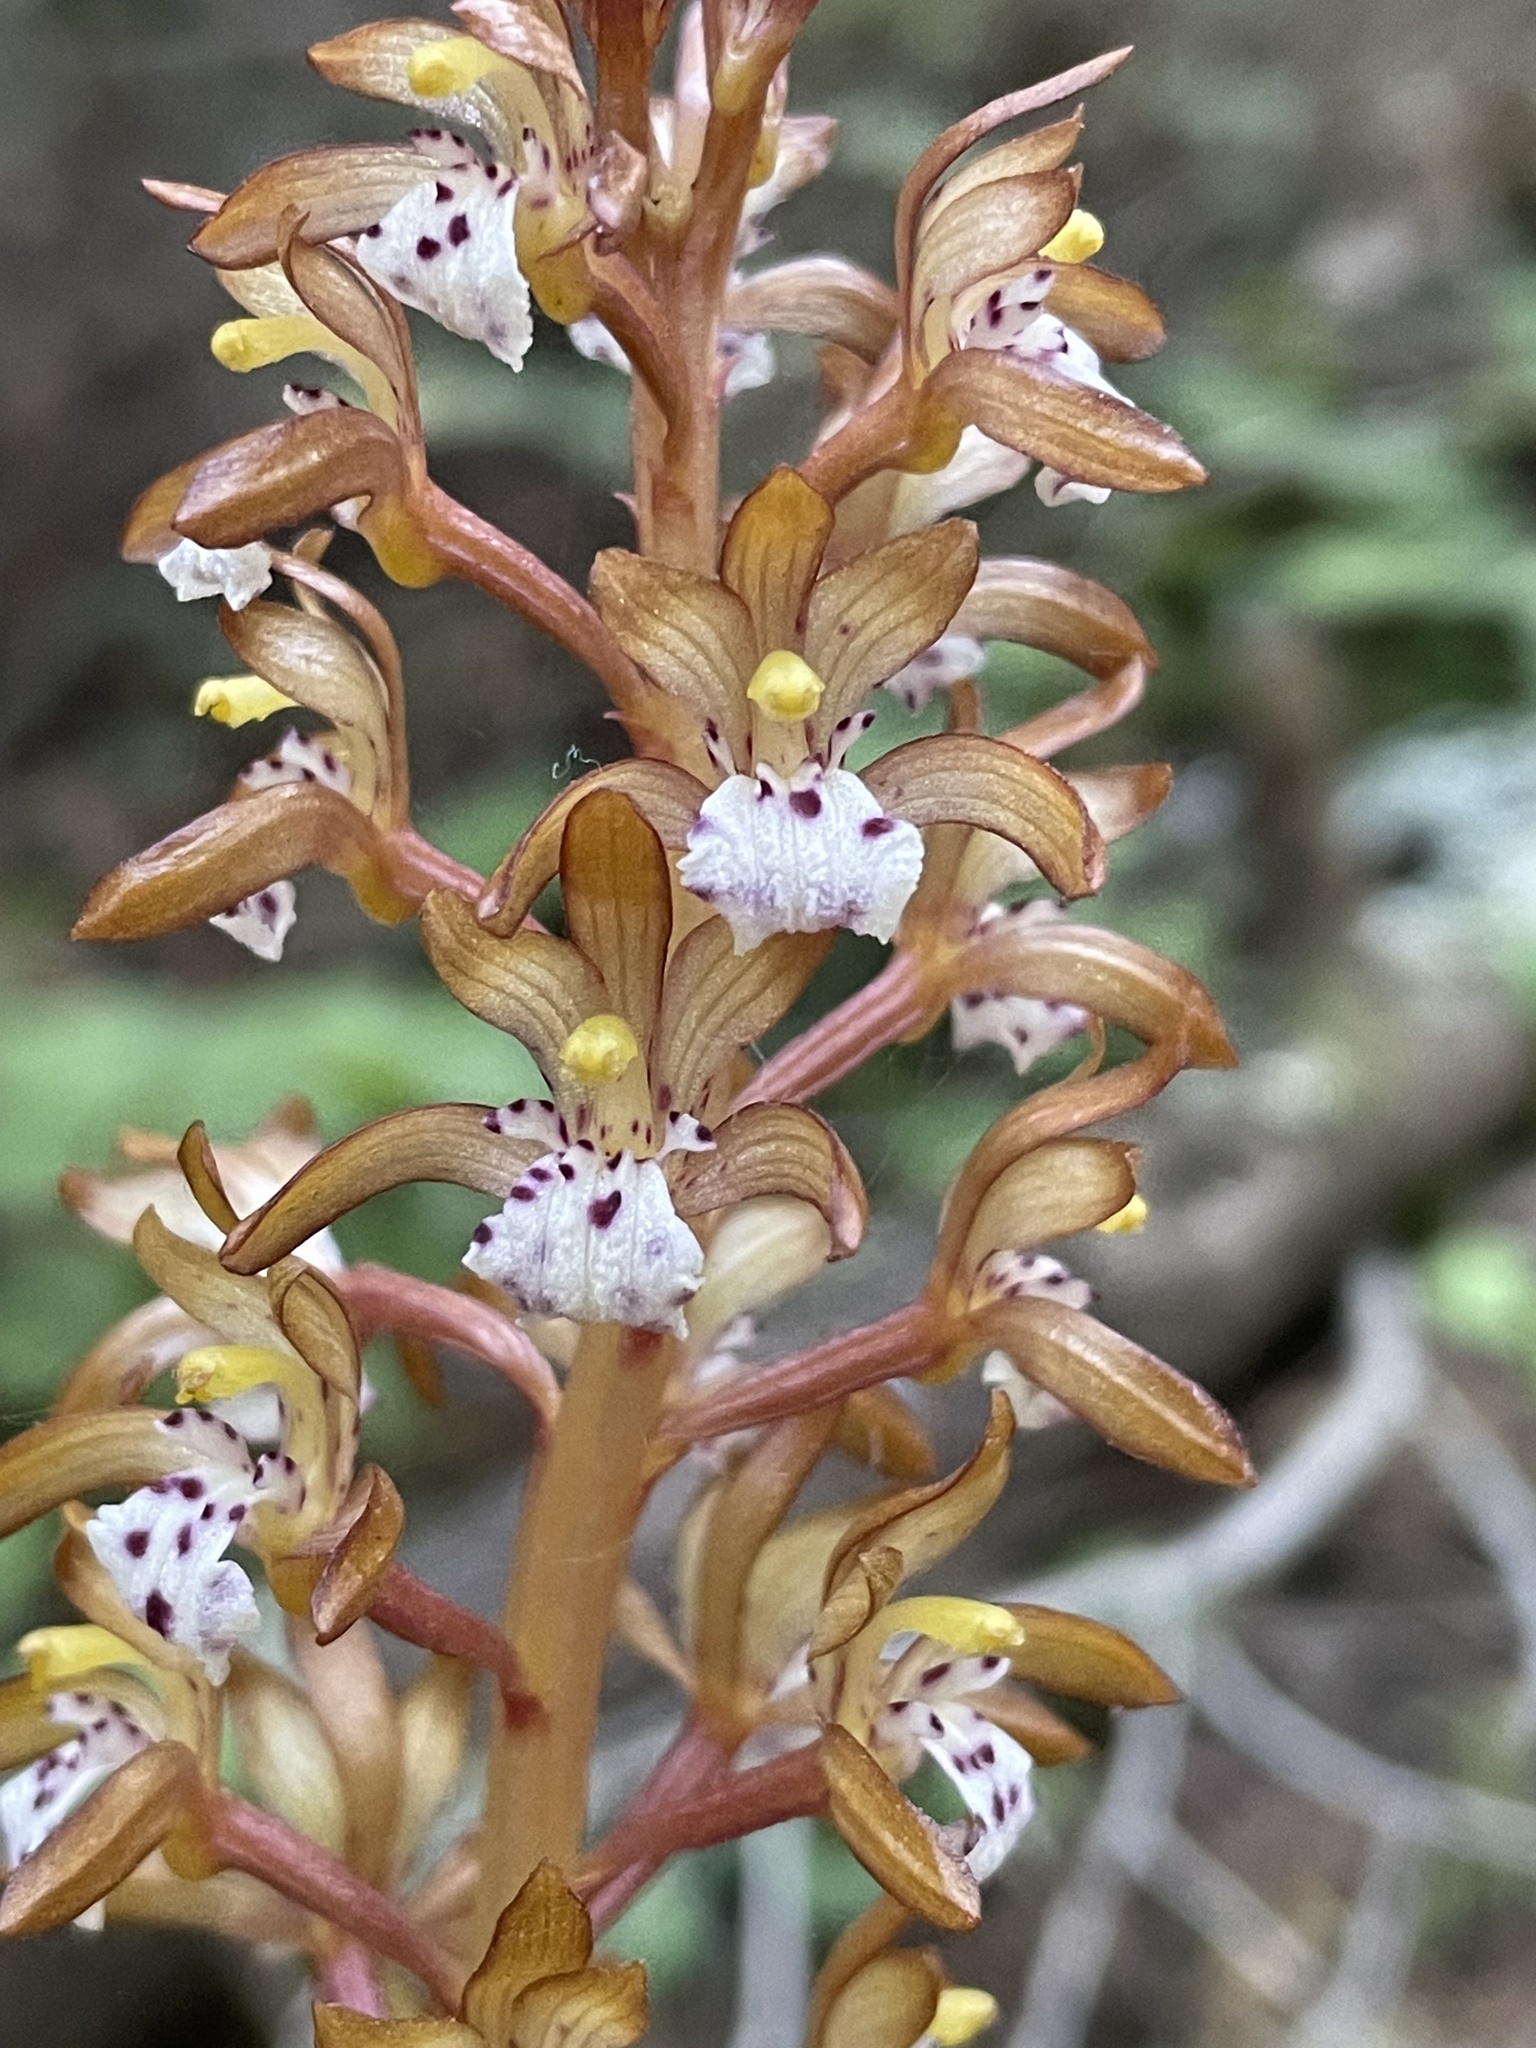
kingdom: Plantae
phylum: Tracheophyta
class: Liliopsida
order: Asparagales
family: Orchidaceae
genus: Corallorhiza
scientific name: Corallorhiza maculata
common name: Spotted coralroot
